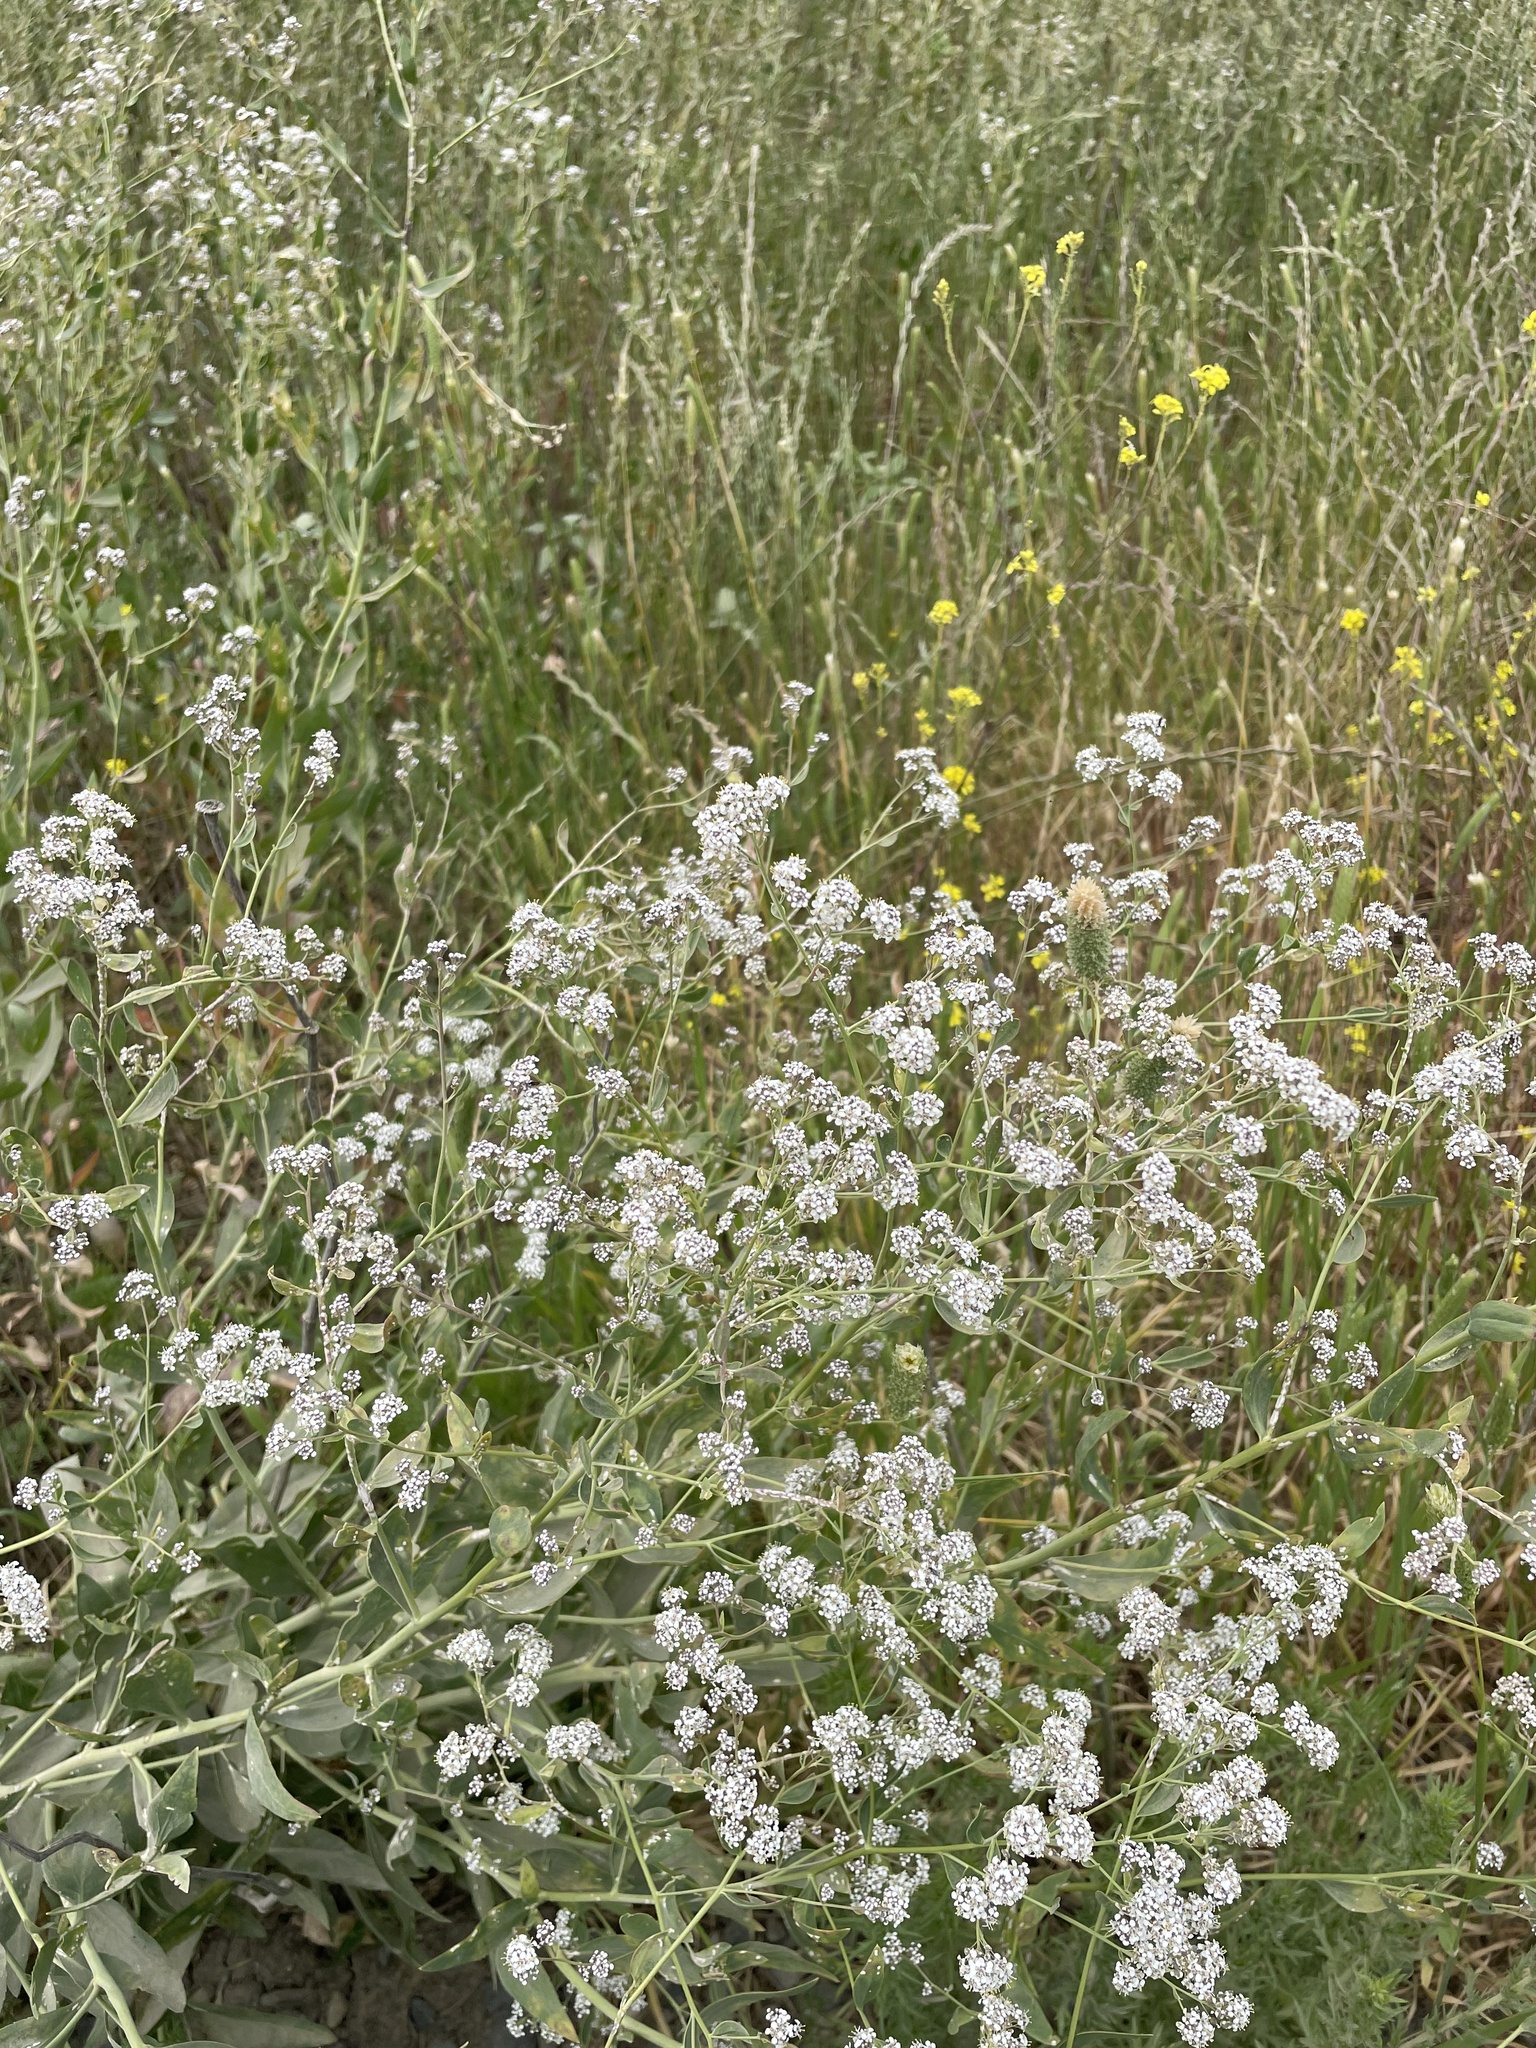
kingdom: Plantae
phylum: Tracheophyta
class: Magnoliopsida
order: Brassicales
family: Brassicaceae
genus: Lepidium
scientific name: Lepidium latifolium
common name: Dittander
